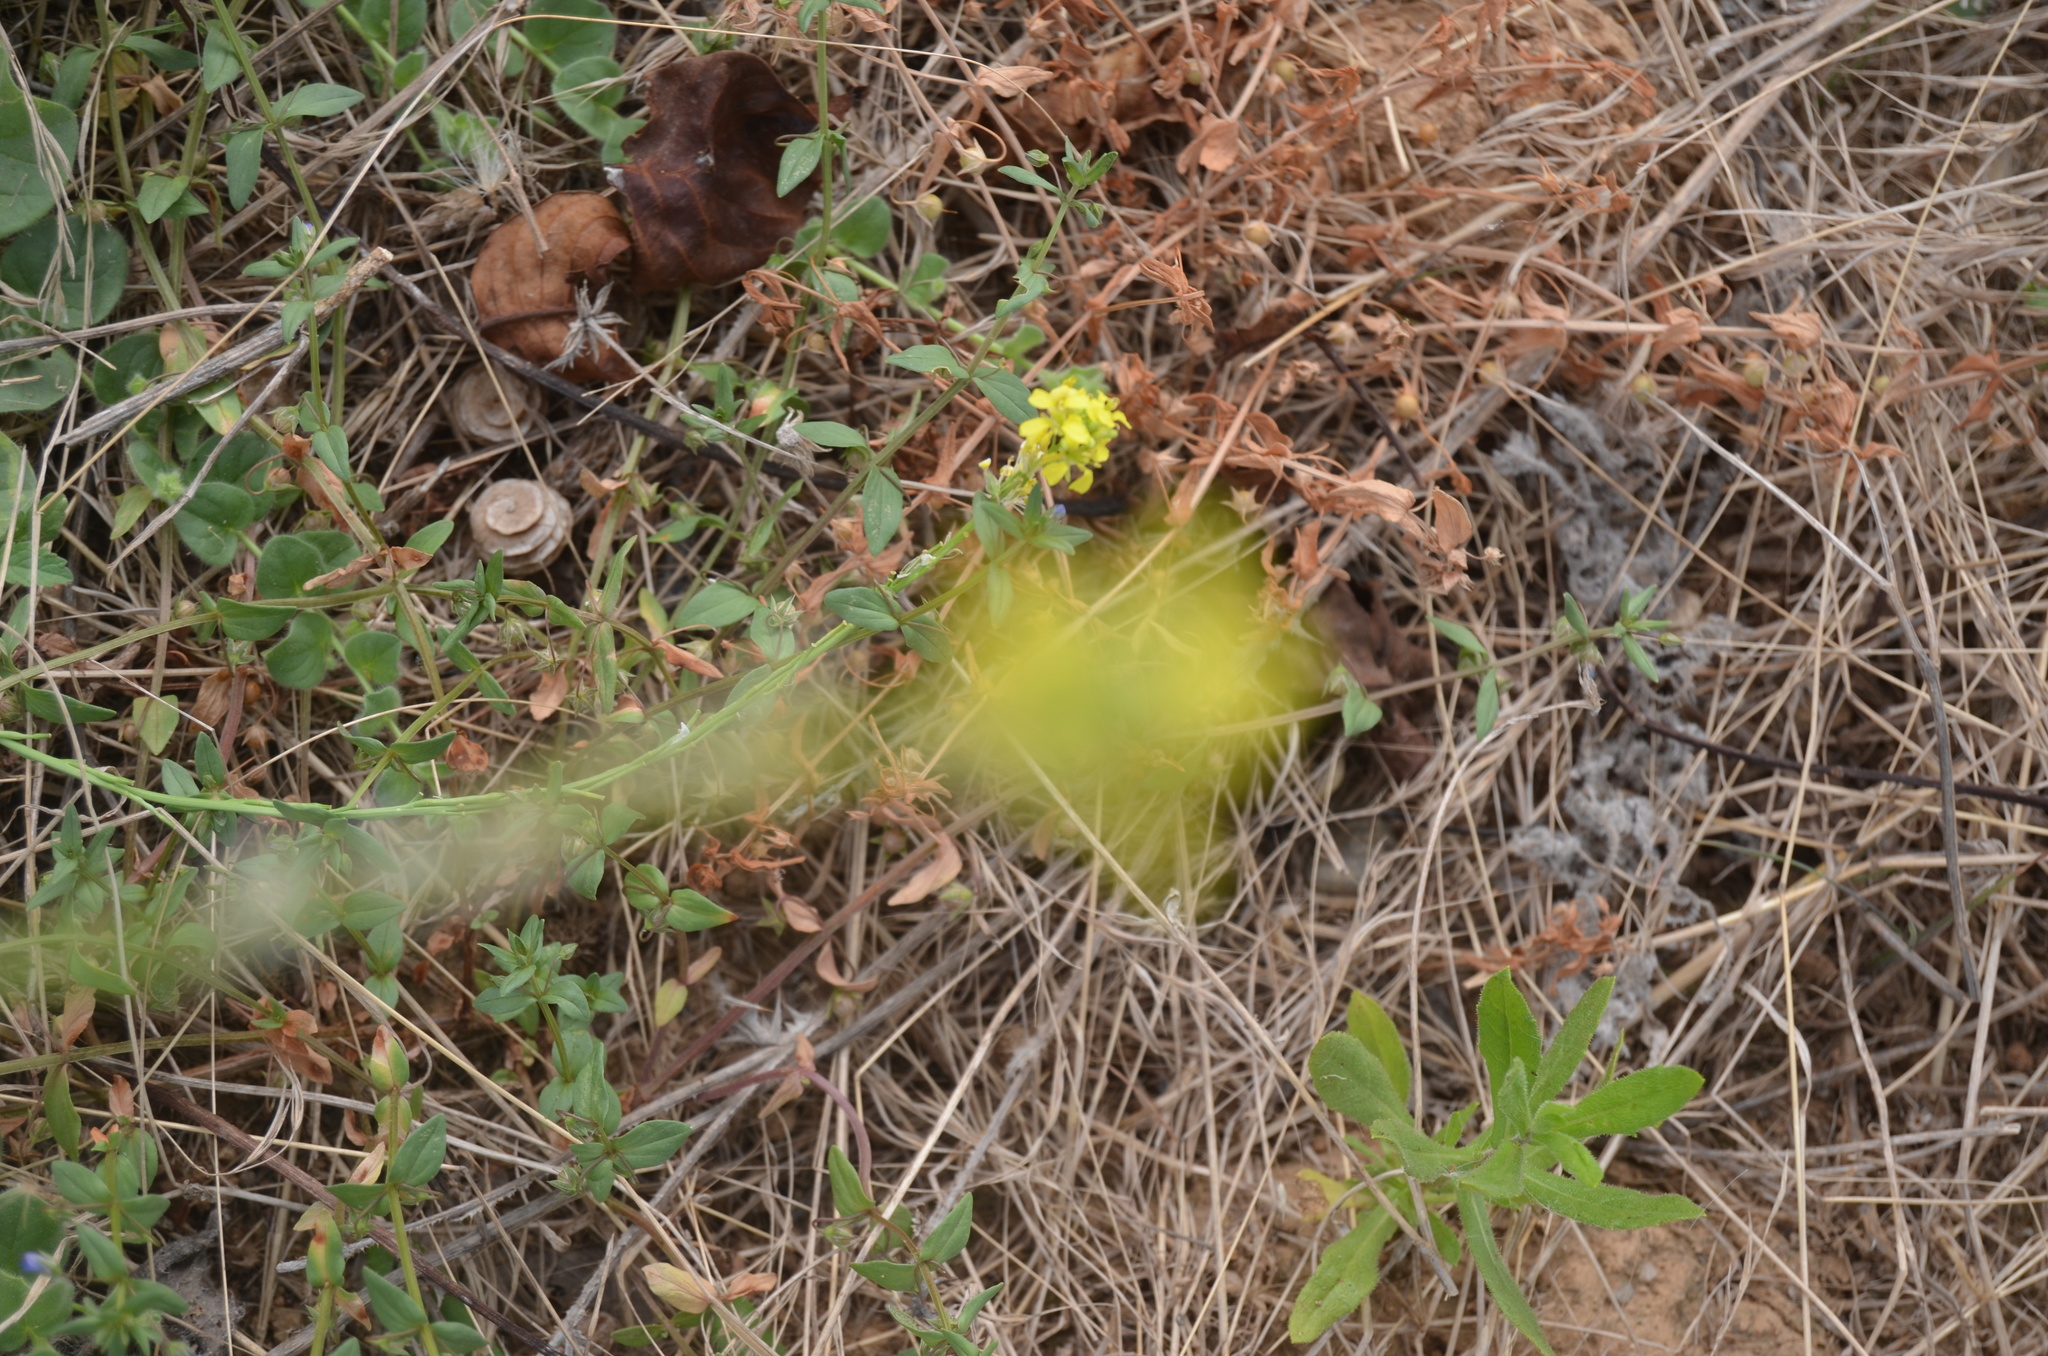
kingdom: Plantae
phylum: Tracheophyta
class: Magnoliopsida
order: Brassicales
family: Brassicaceae
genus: Hirschfeldia
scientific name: Hirschfeldia incana
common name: Hoary mustard
